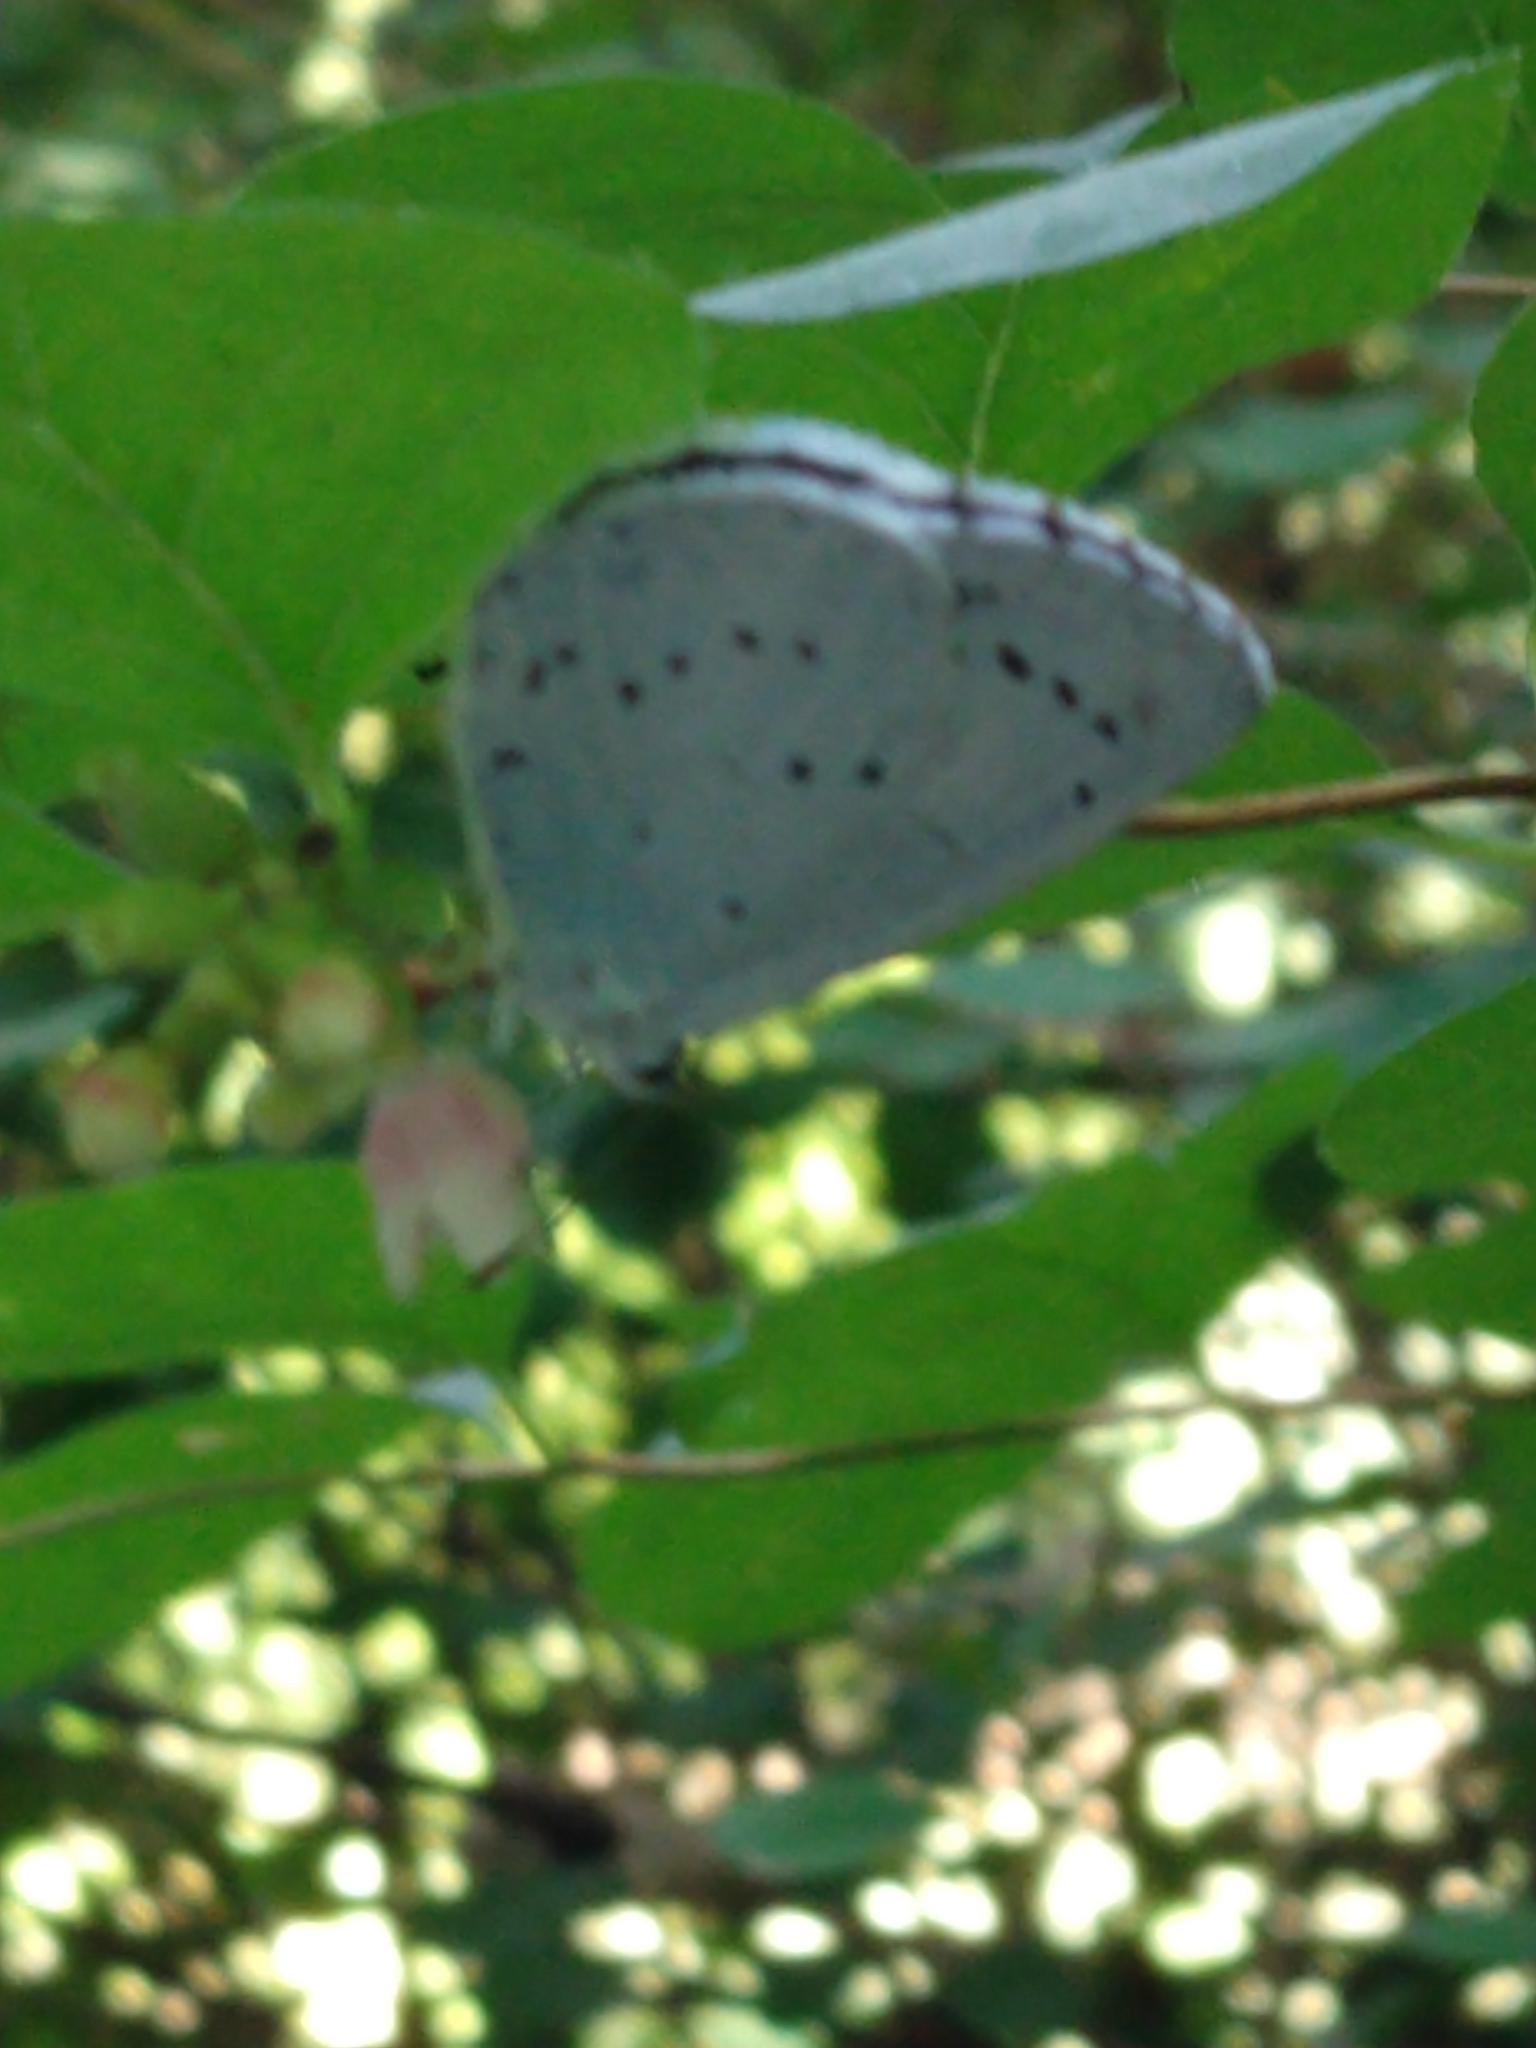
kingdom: Animalia
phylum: Arthropoda
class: Insecta
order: Lepidoptera
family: Lycaenidae
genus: Celastrina
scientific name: Celastrina argiolus
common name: Holly blue
